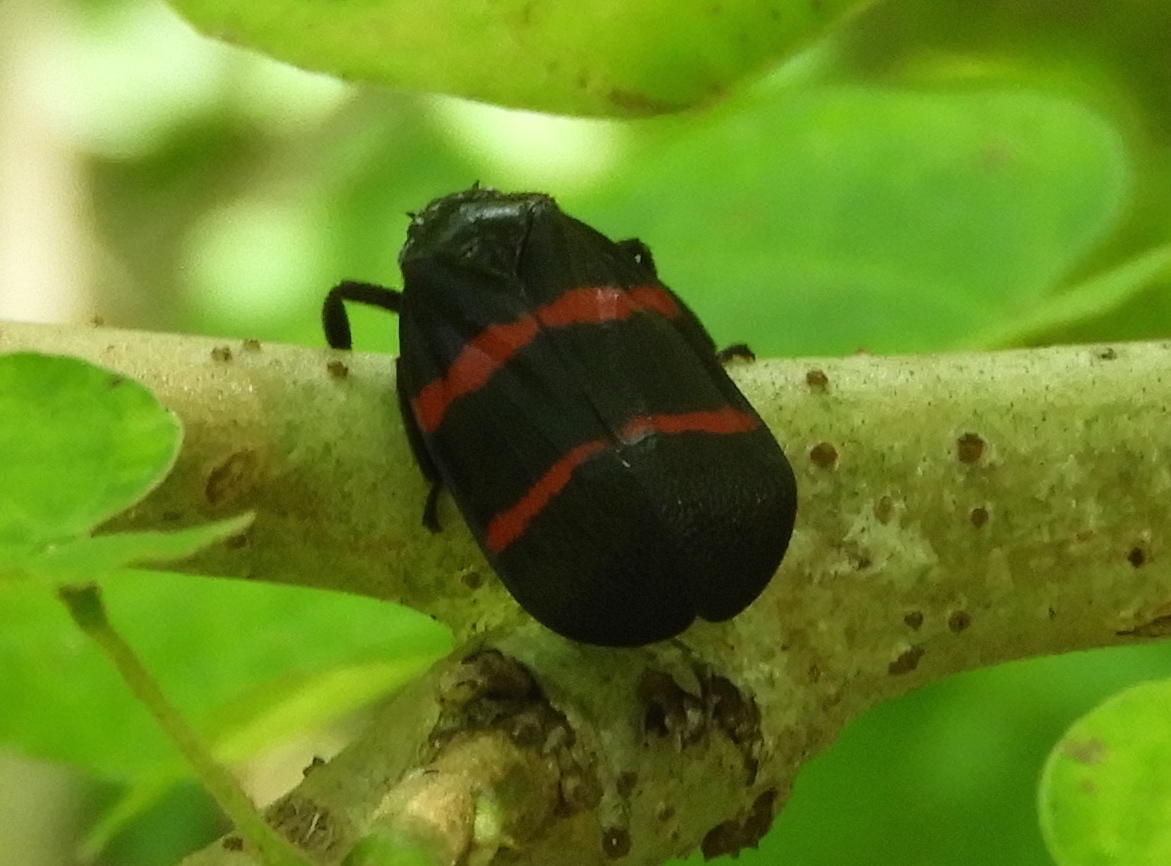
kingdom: Animalia
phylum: Arthropoda
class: Insecta
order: Hemiptera
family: Cercopidae
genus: Huaina
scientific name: Huaina inca
